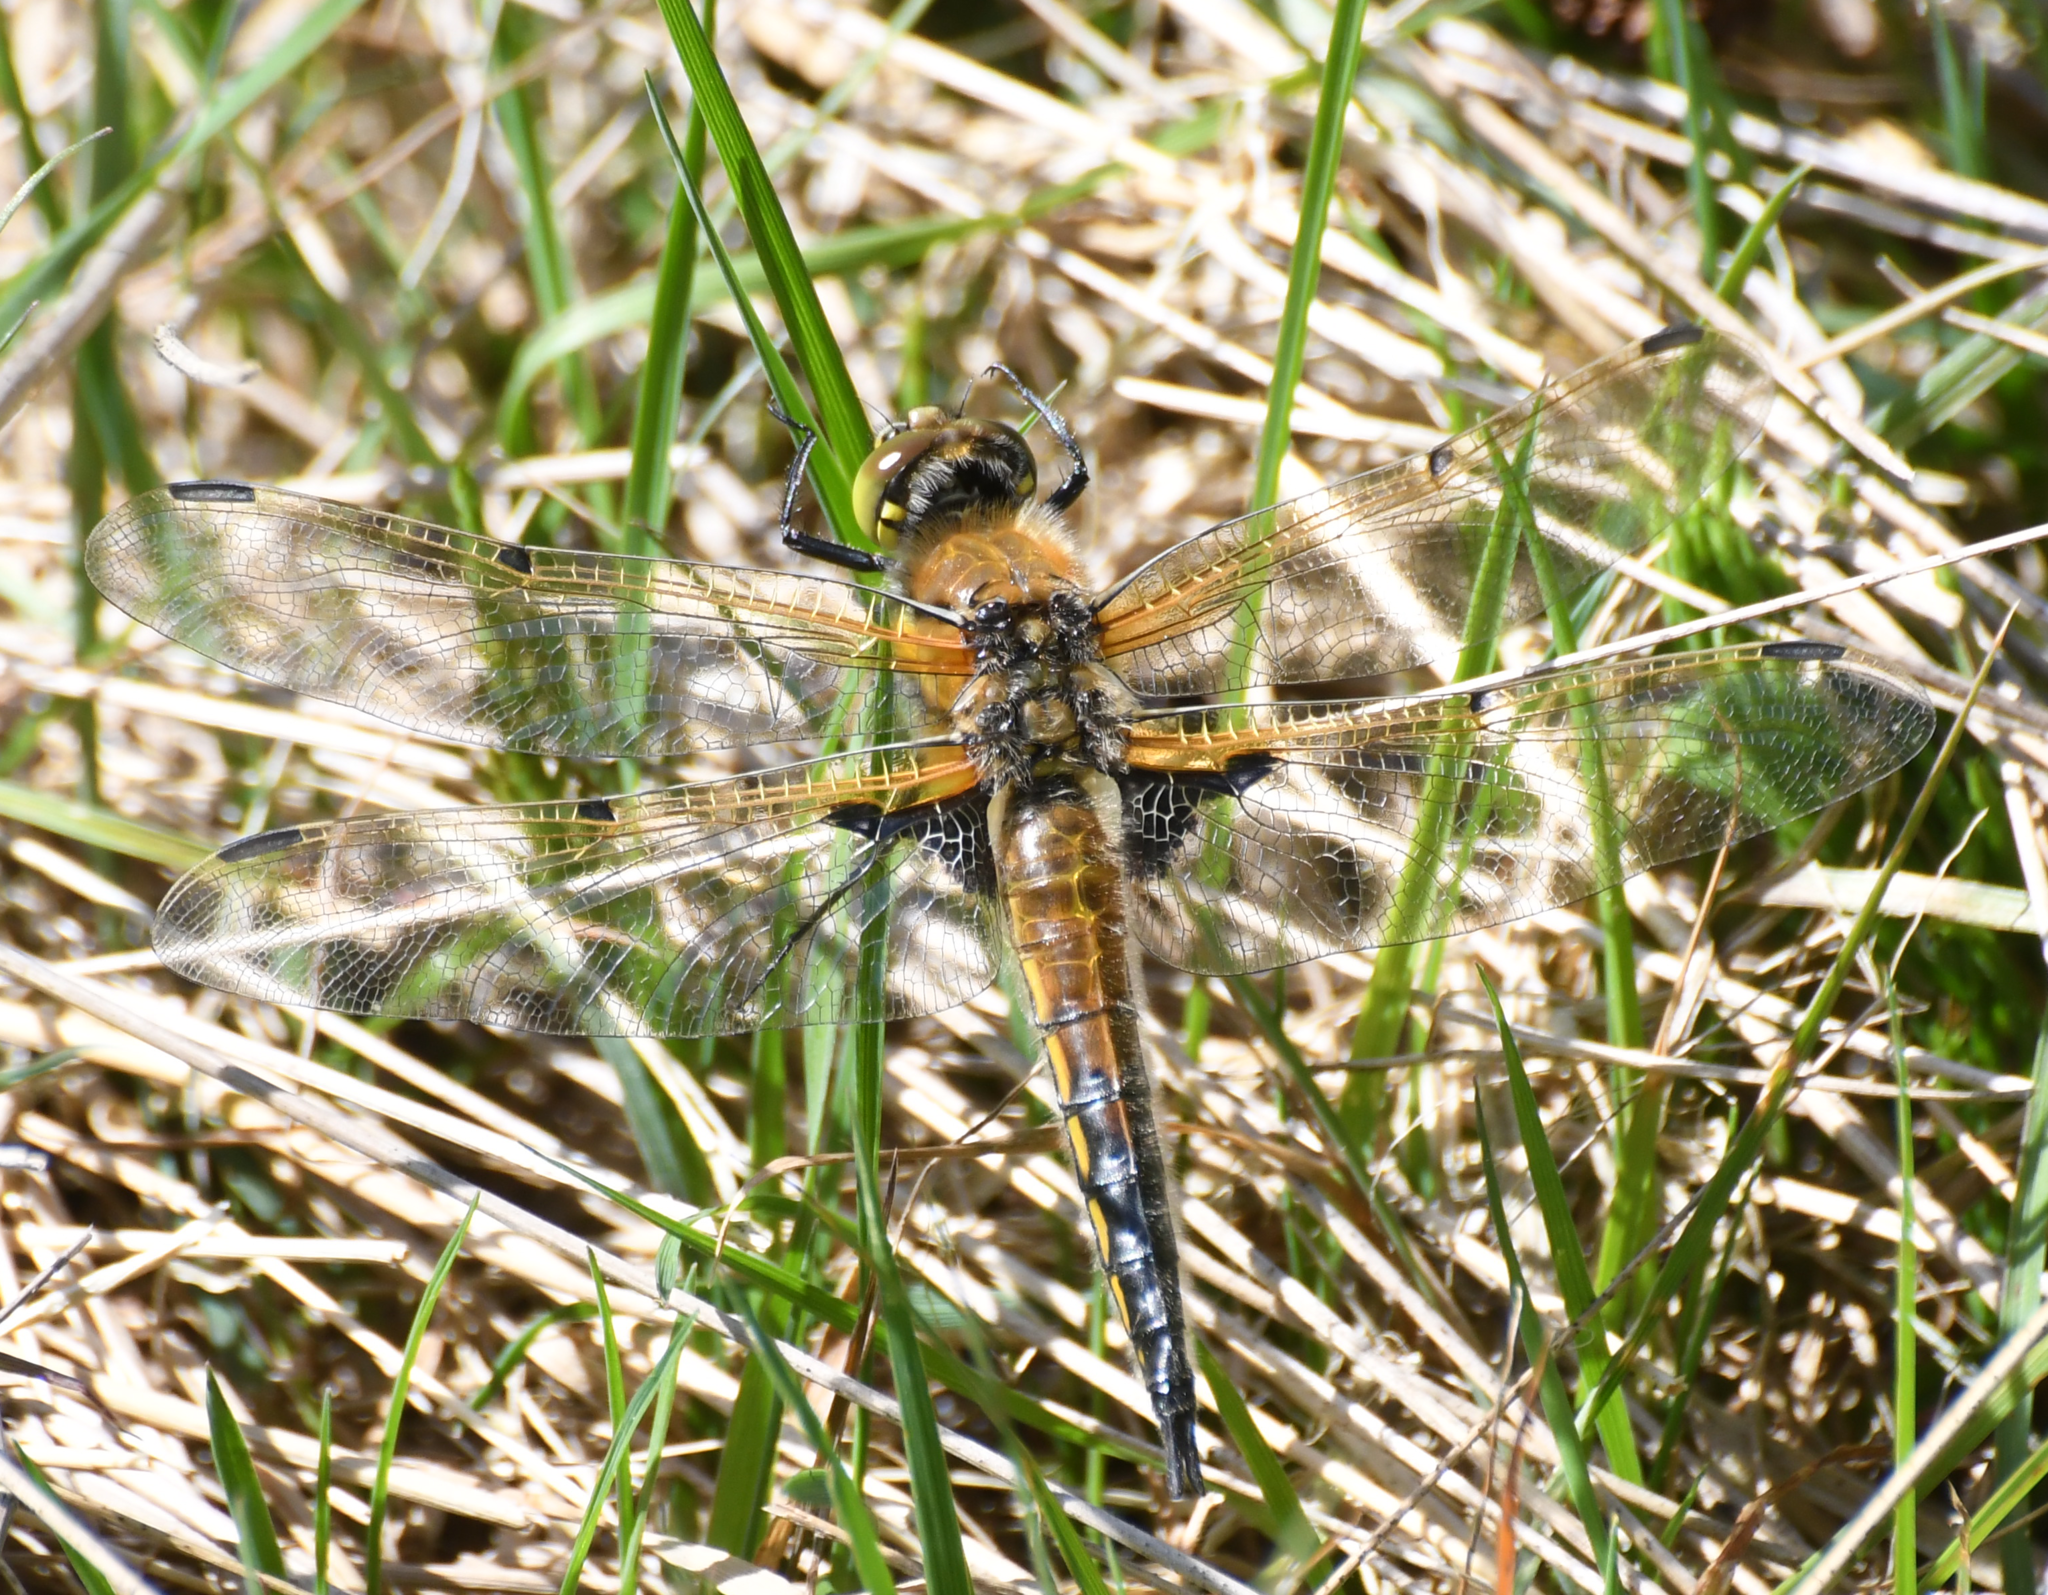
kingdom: Animalia
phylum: Arthropoda
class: Insecta
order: Odonata
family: Libellulidae
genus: Libellula
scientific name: Libellula quadrimaculata
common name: Four-spotted chaser
